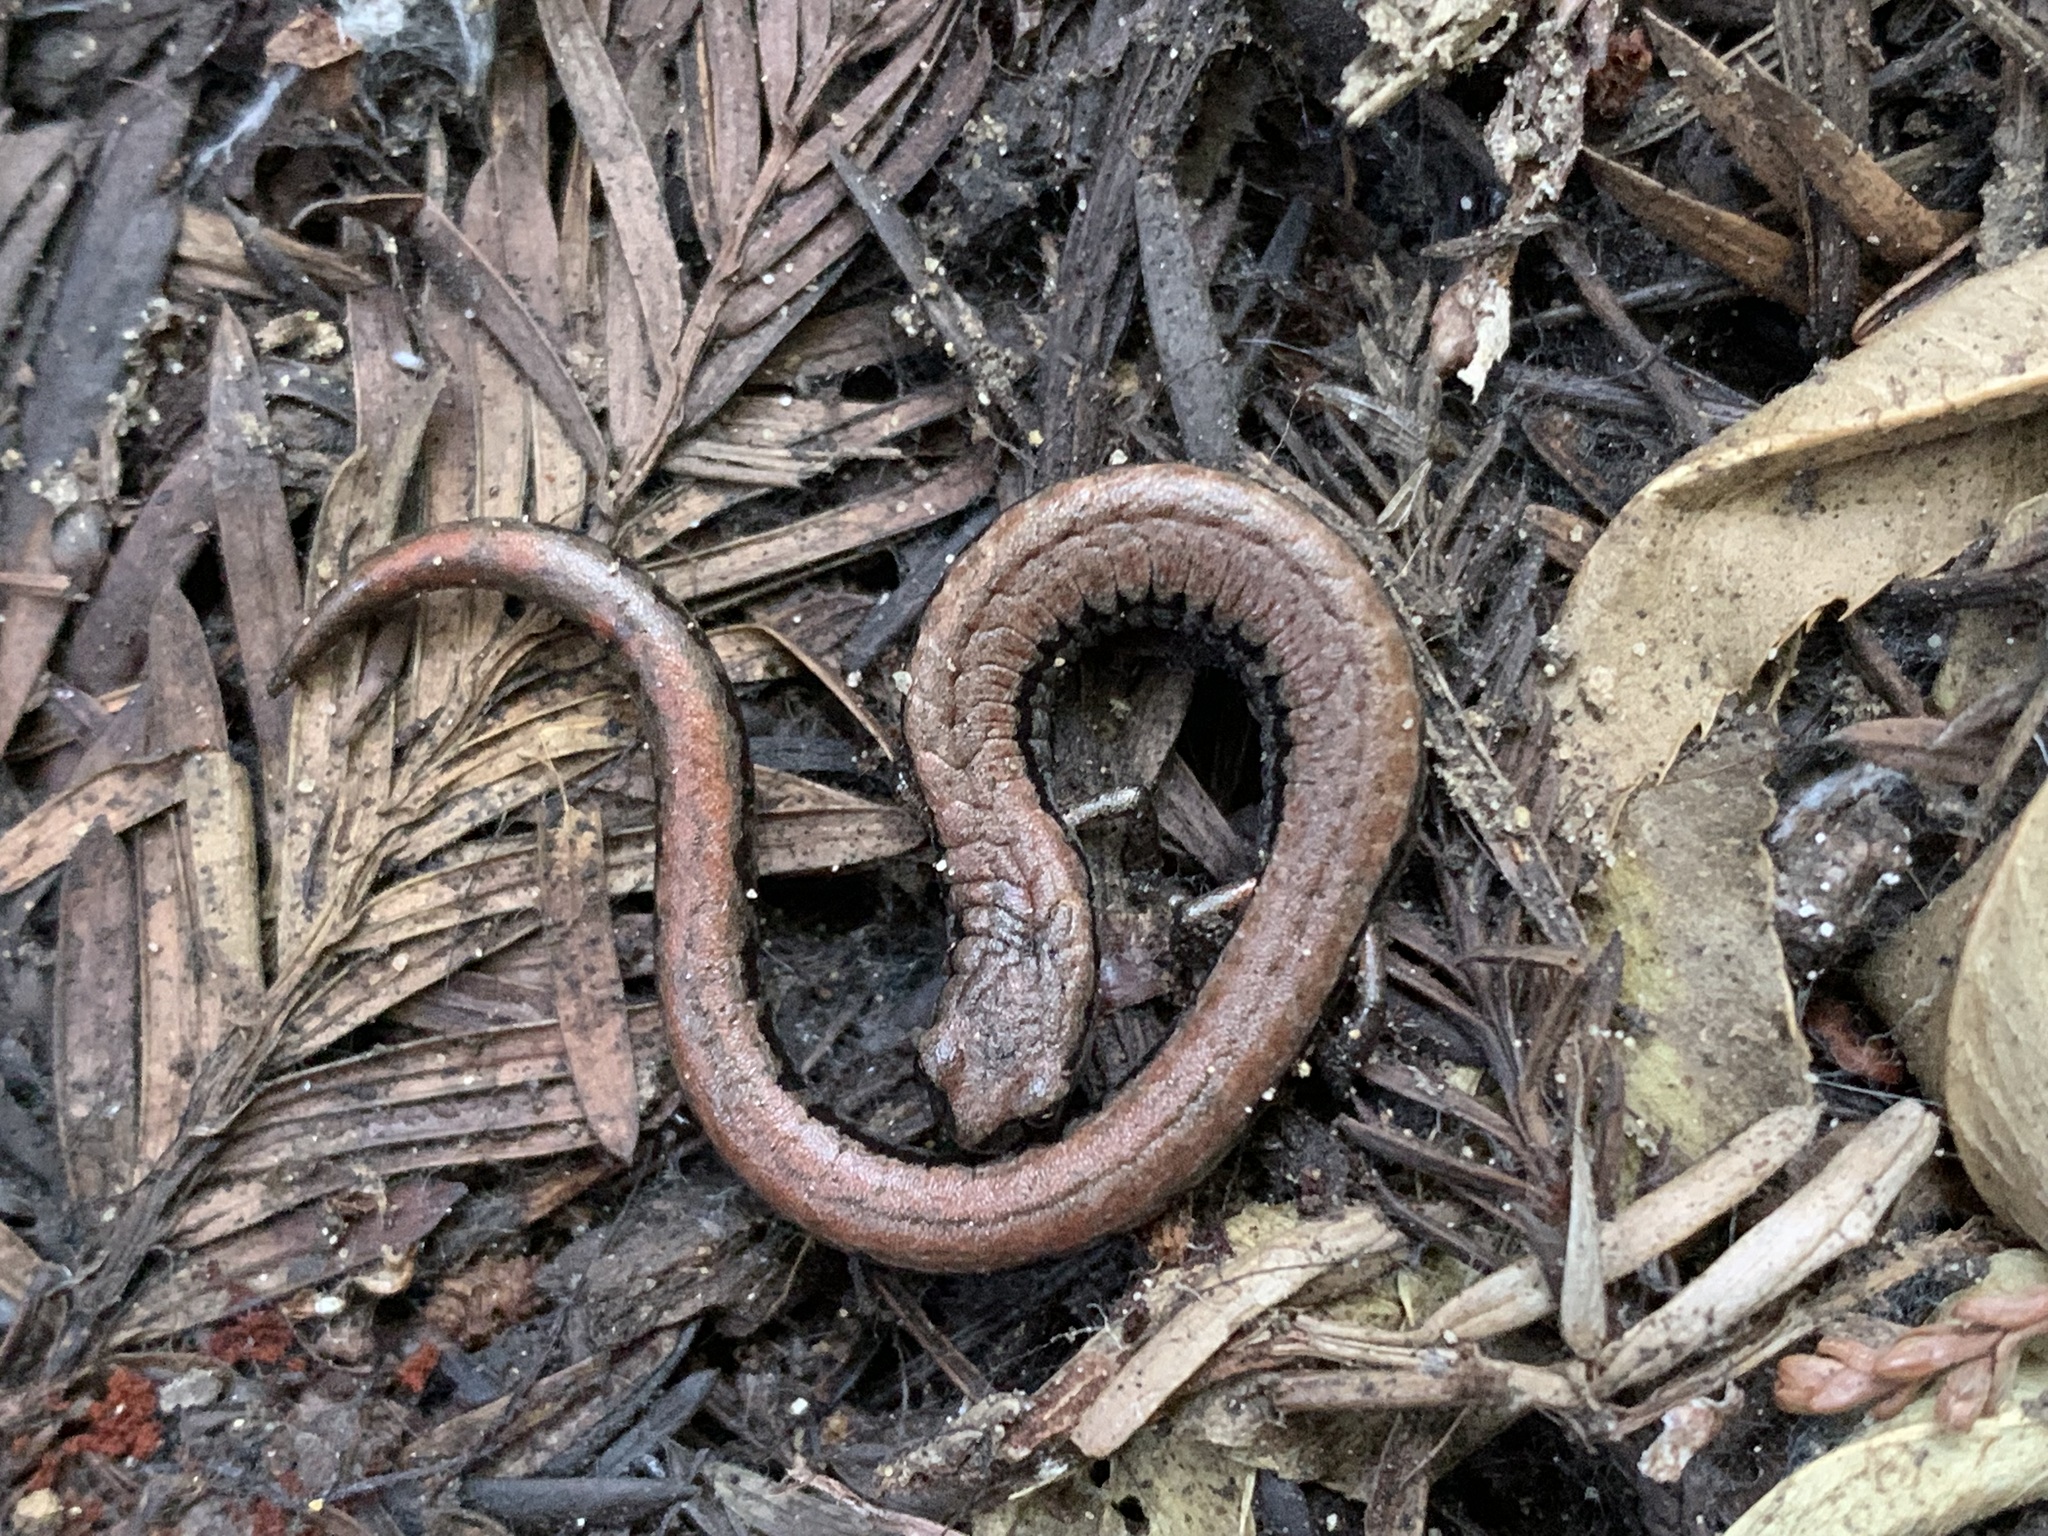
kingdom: Animalia
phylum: Chordata
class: Amphibia
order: Caudata
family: Plethodontidae
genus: Batrachoseps
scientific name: Batrachoseps attenuatus
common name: California slender salamander
